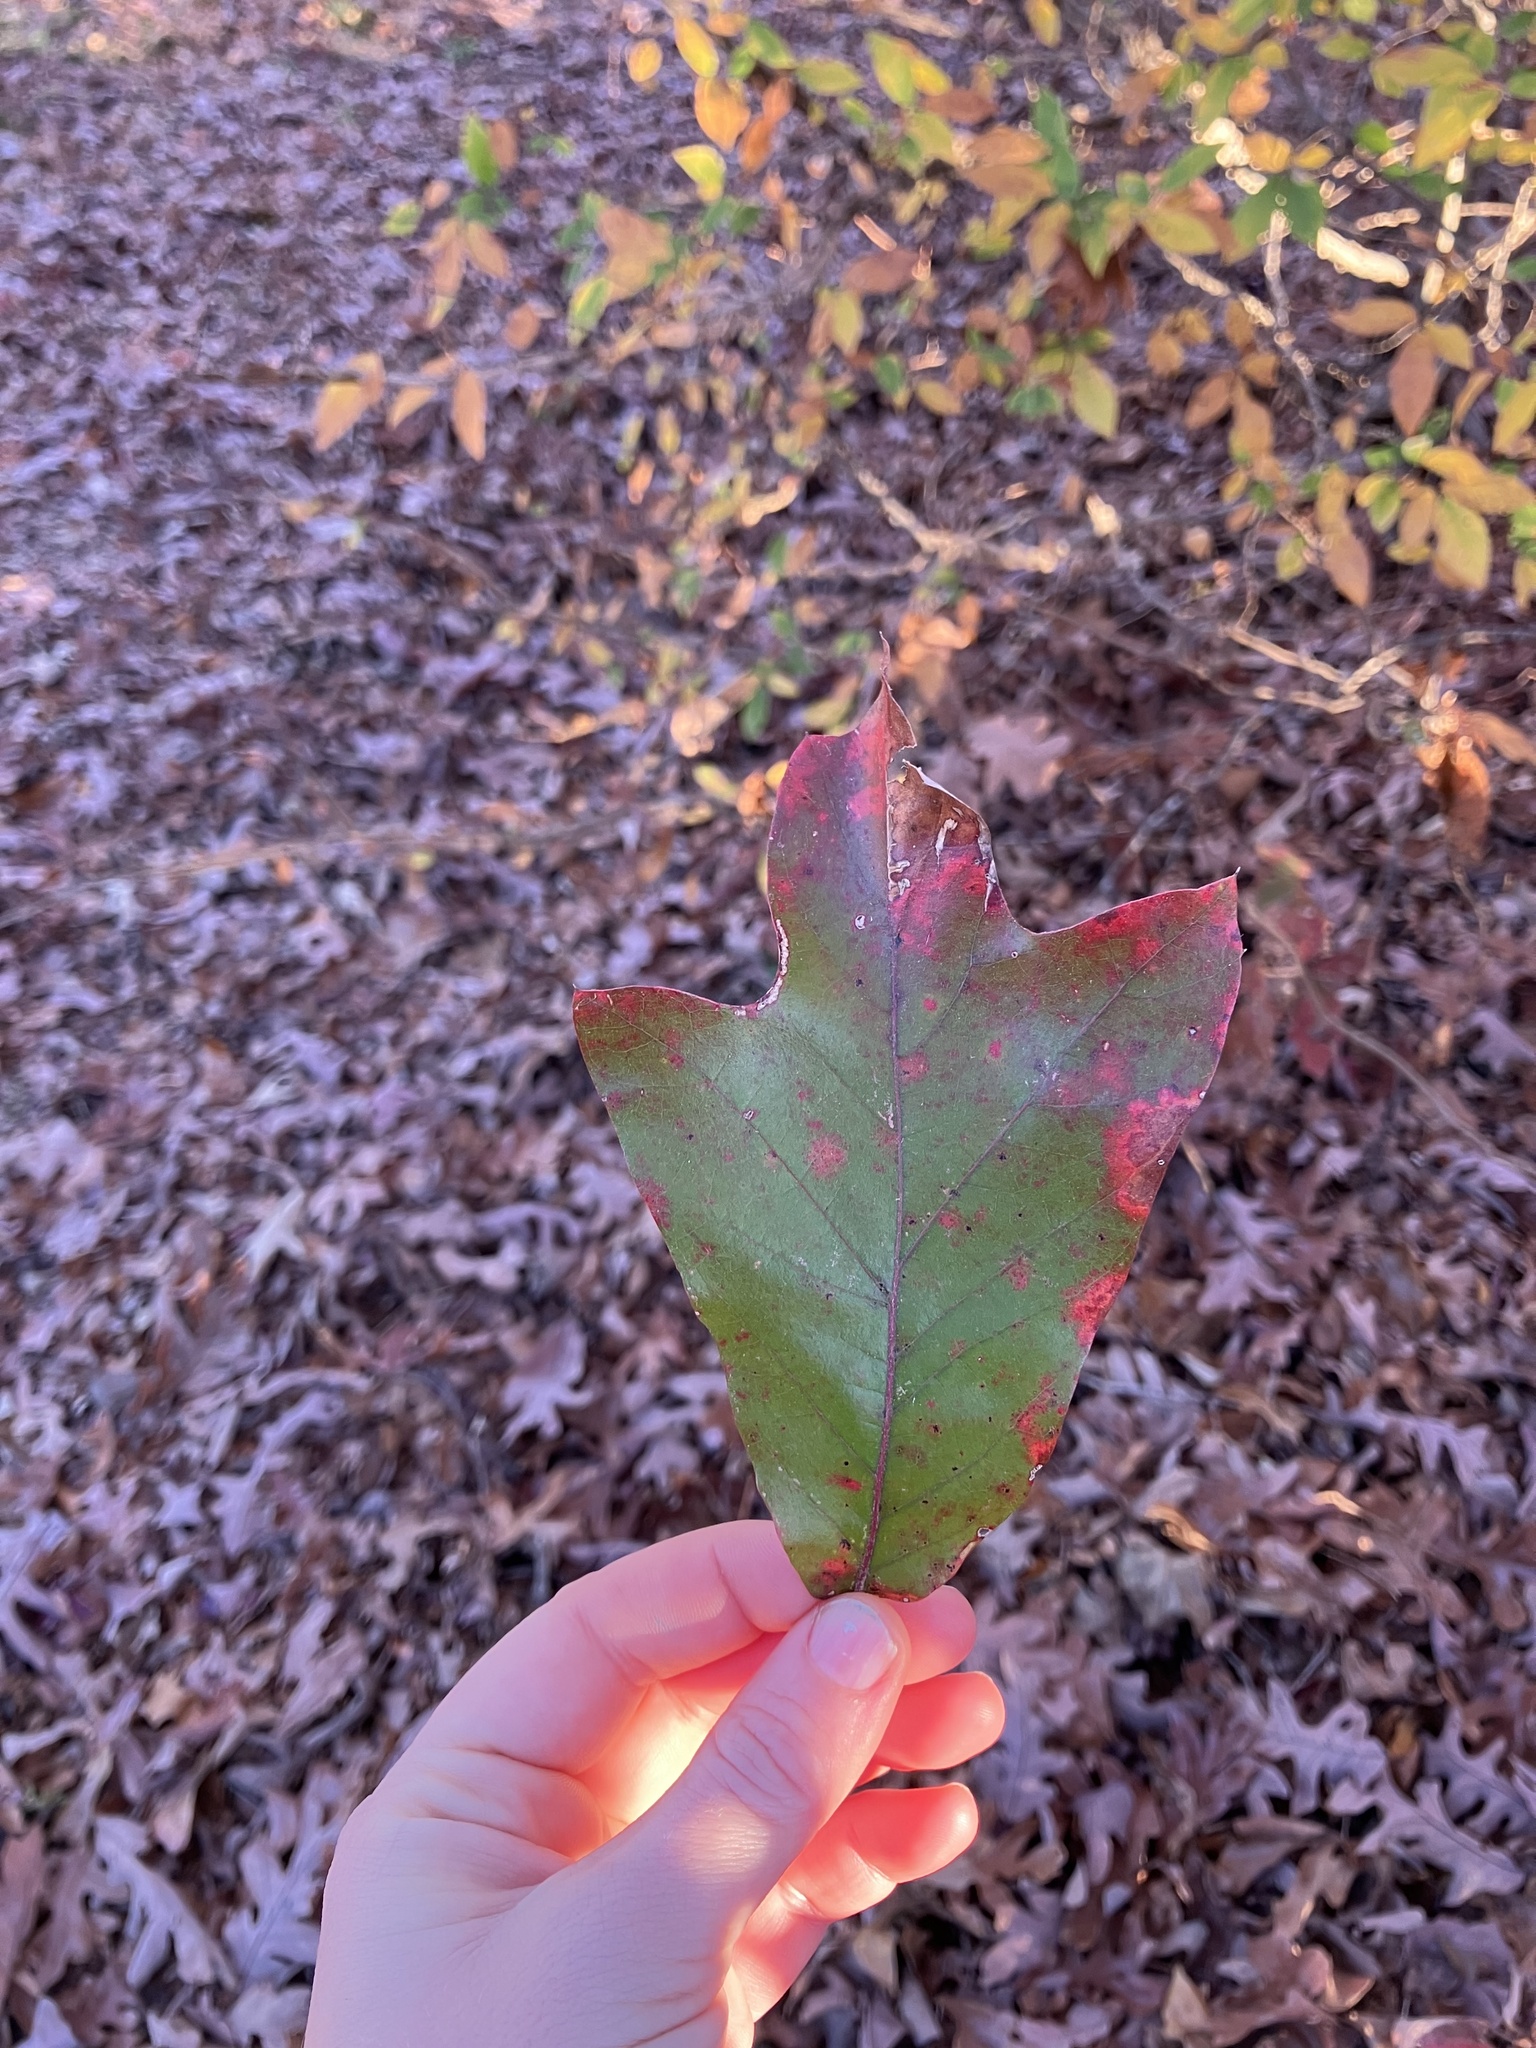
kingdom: Plantae
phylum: Tracheophyta
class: Magnoliopsida
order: Fagales
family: Fagaceae
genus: Quercus
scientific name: Quercus falcata
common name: Southern red oak
